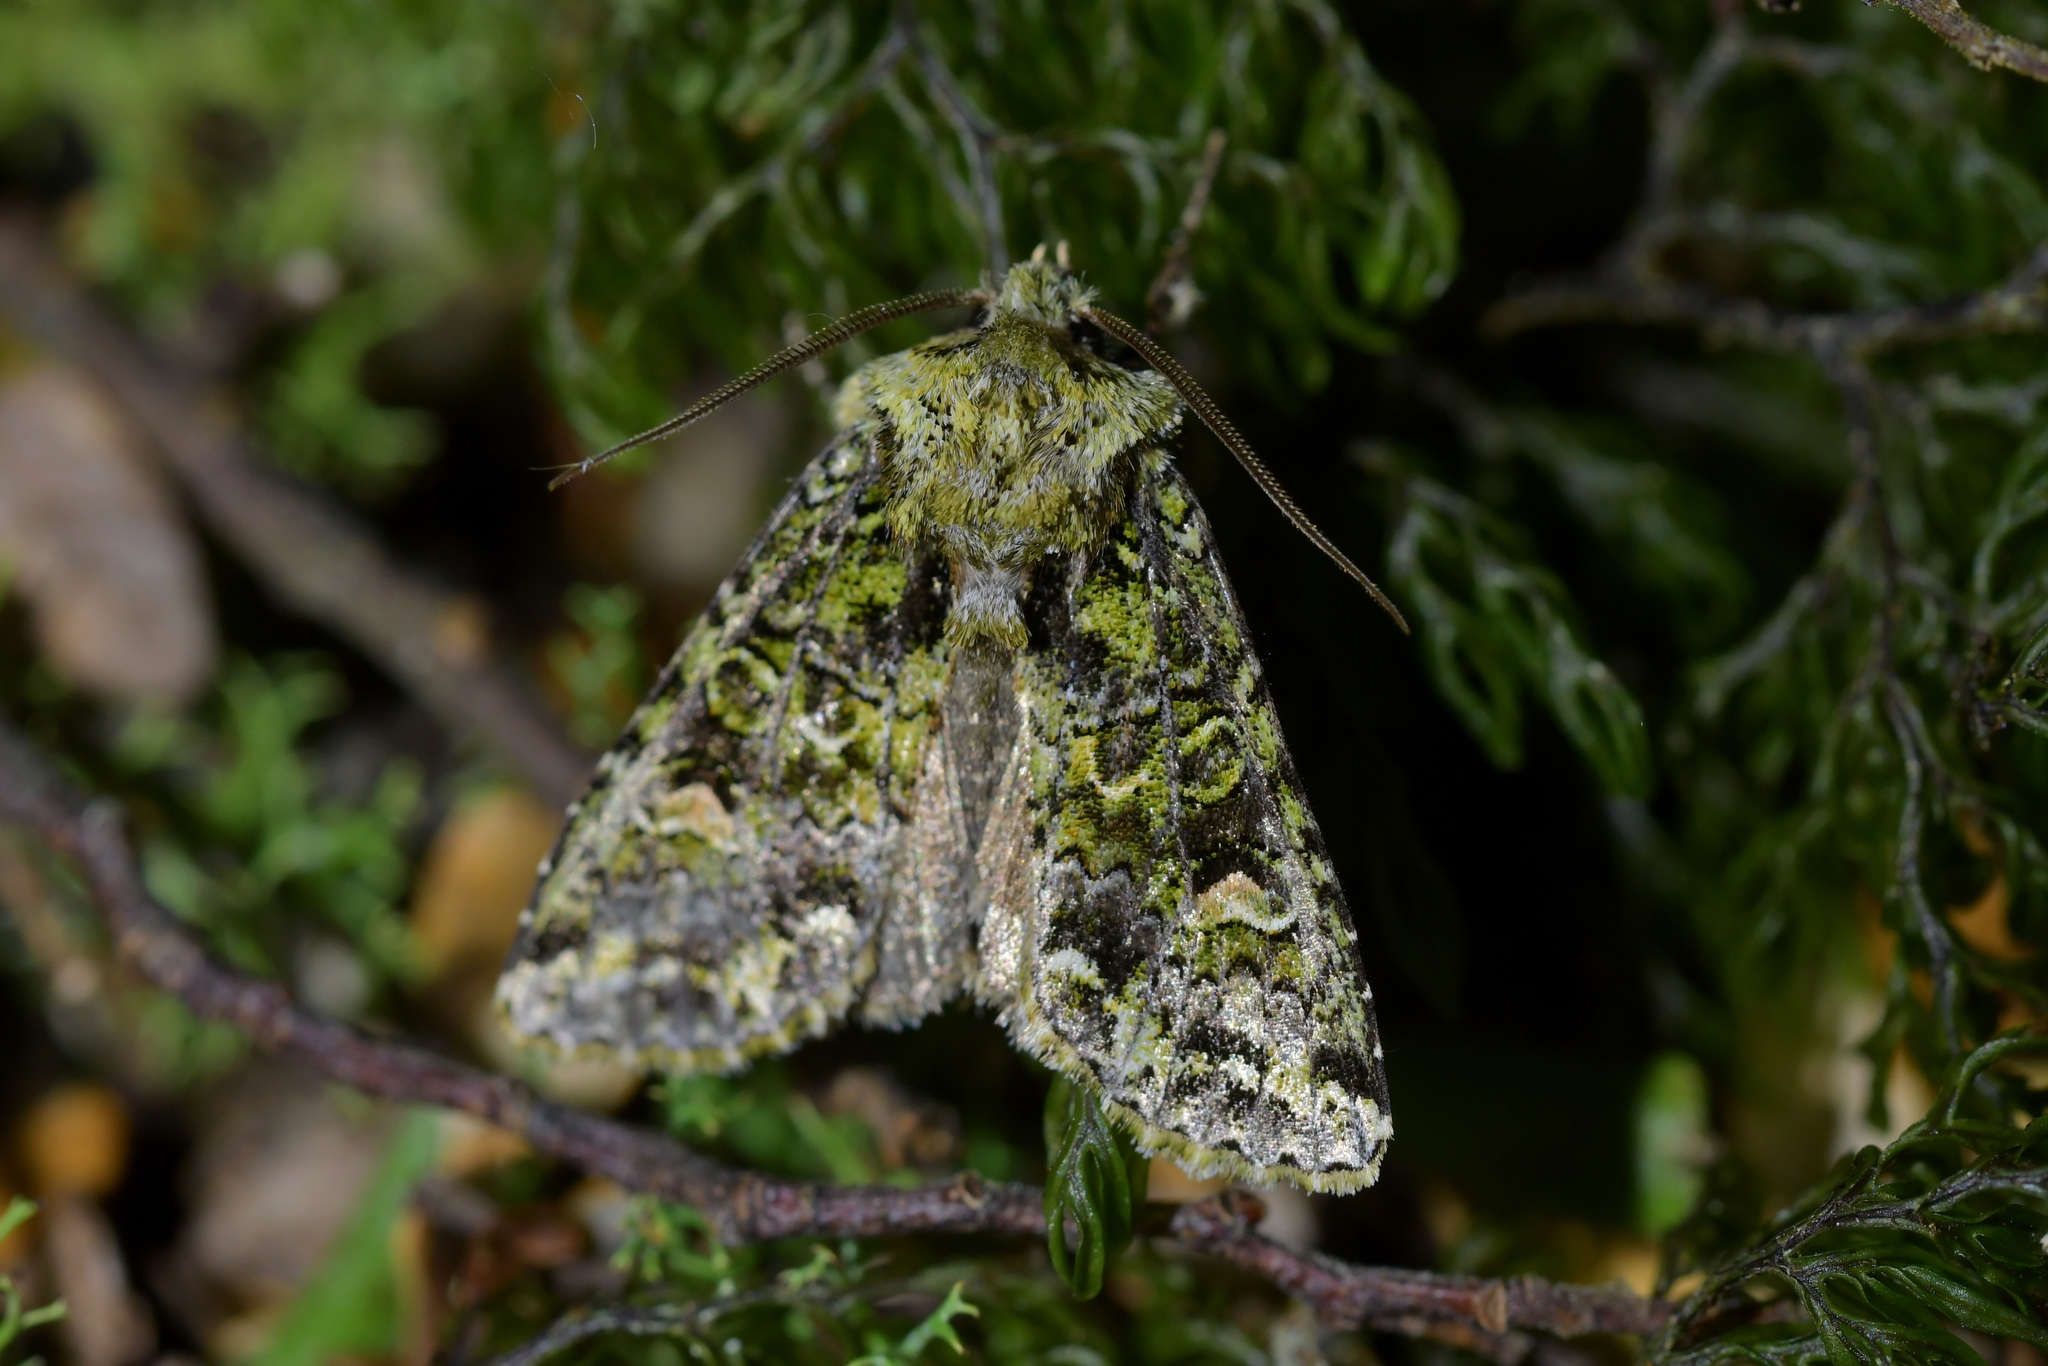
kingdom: Animalia
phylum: Arthropoda
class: Insecta
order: Lepidoptera
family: Noctuidae
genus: Ichneutica
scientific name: Ichneutica
